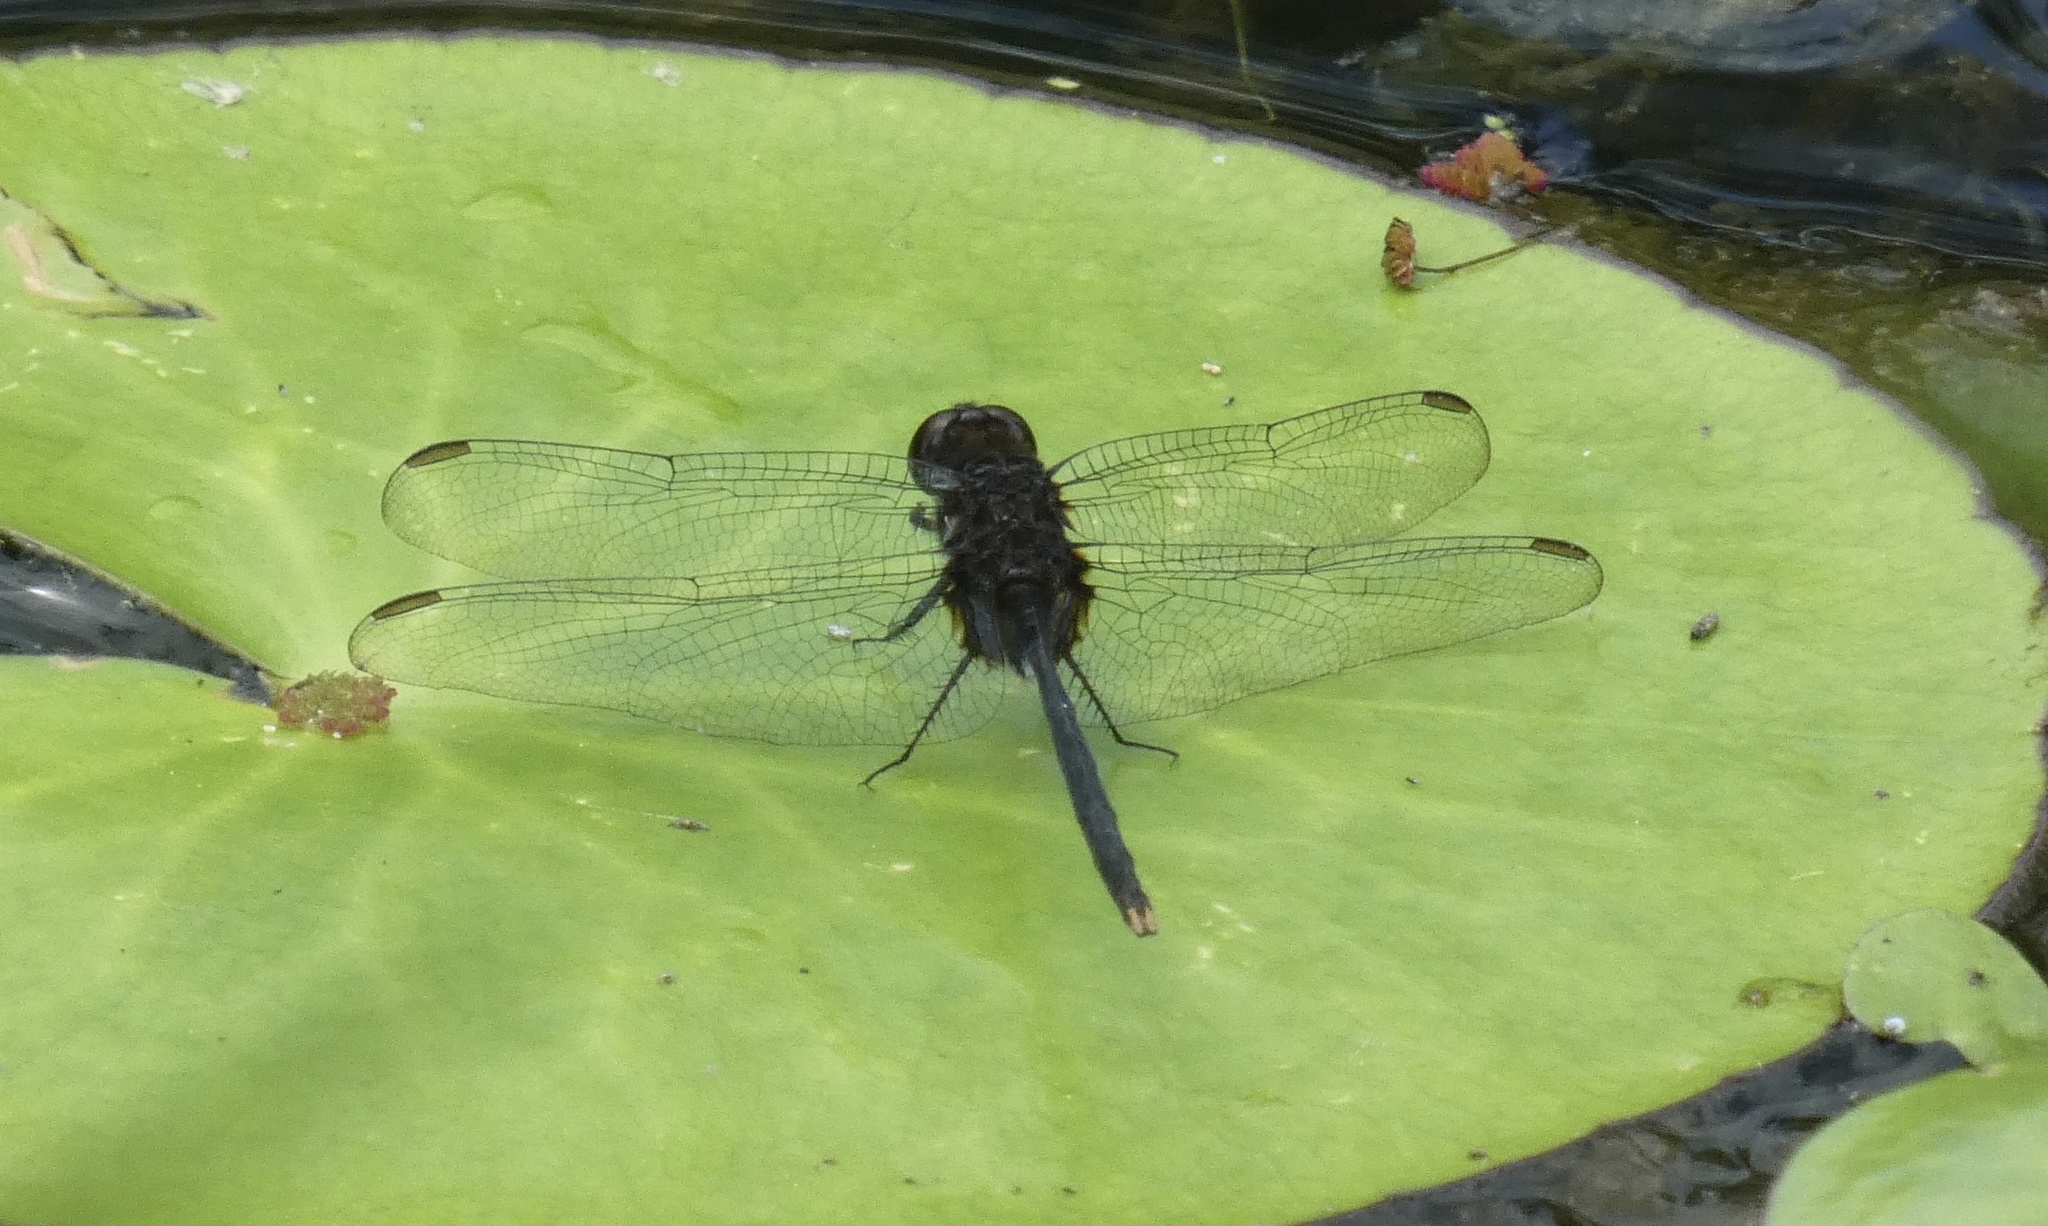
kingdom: Animalia
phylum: Arthropoda
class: Insecta
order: Odonata
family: Libellulidae
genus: Erythemis
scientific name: Erythemis plebeja
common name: Pin-tailed pondhawk
